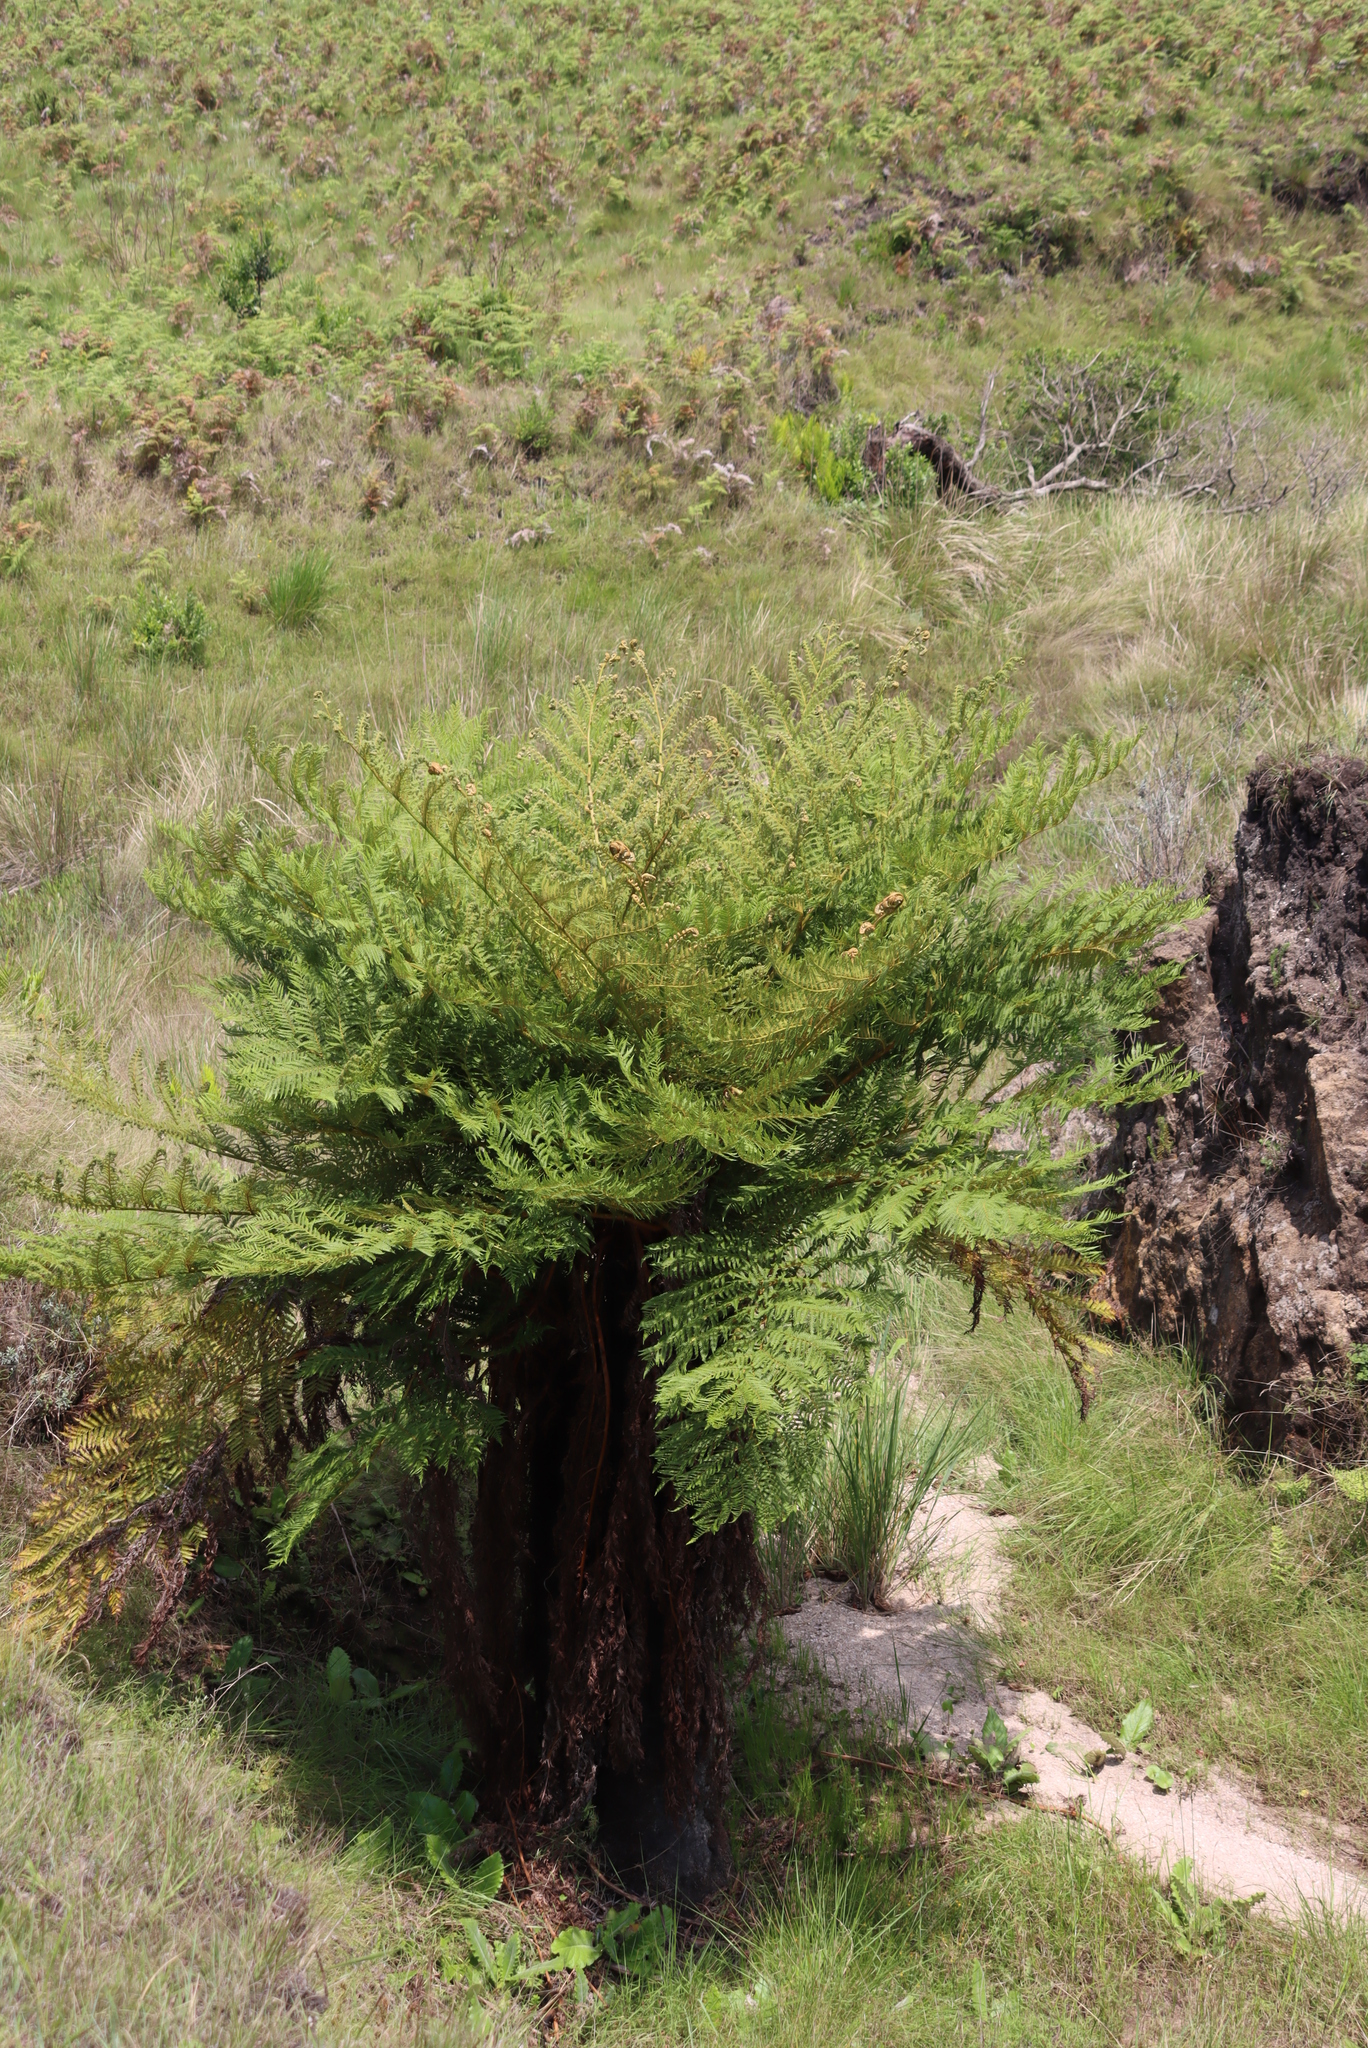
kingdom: Plantae
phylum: Tracheophyta
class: Polypodiopsida
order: Cyatheales
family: Cyatheaceae
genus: Alsophila
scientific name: Alsophila dregei
